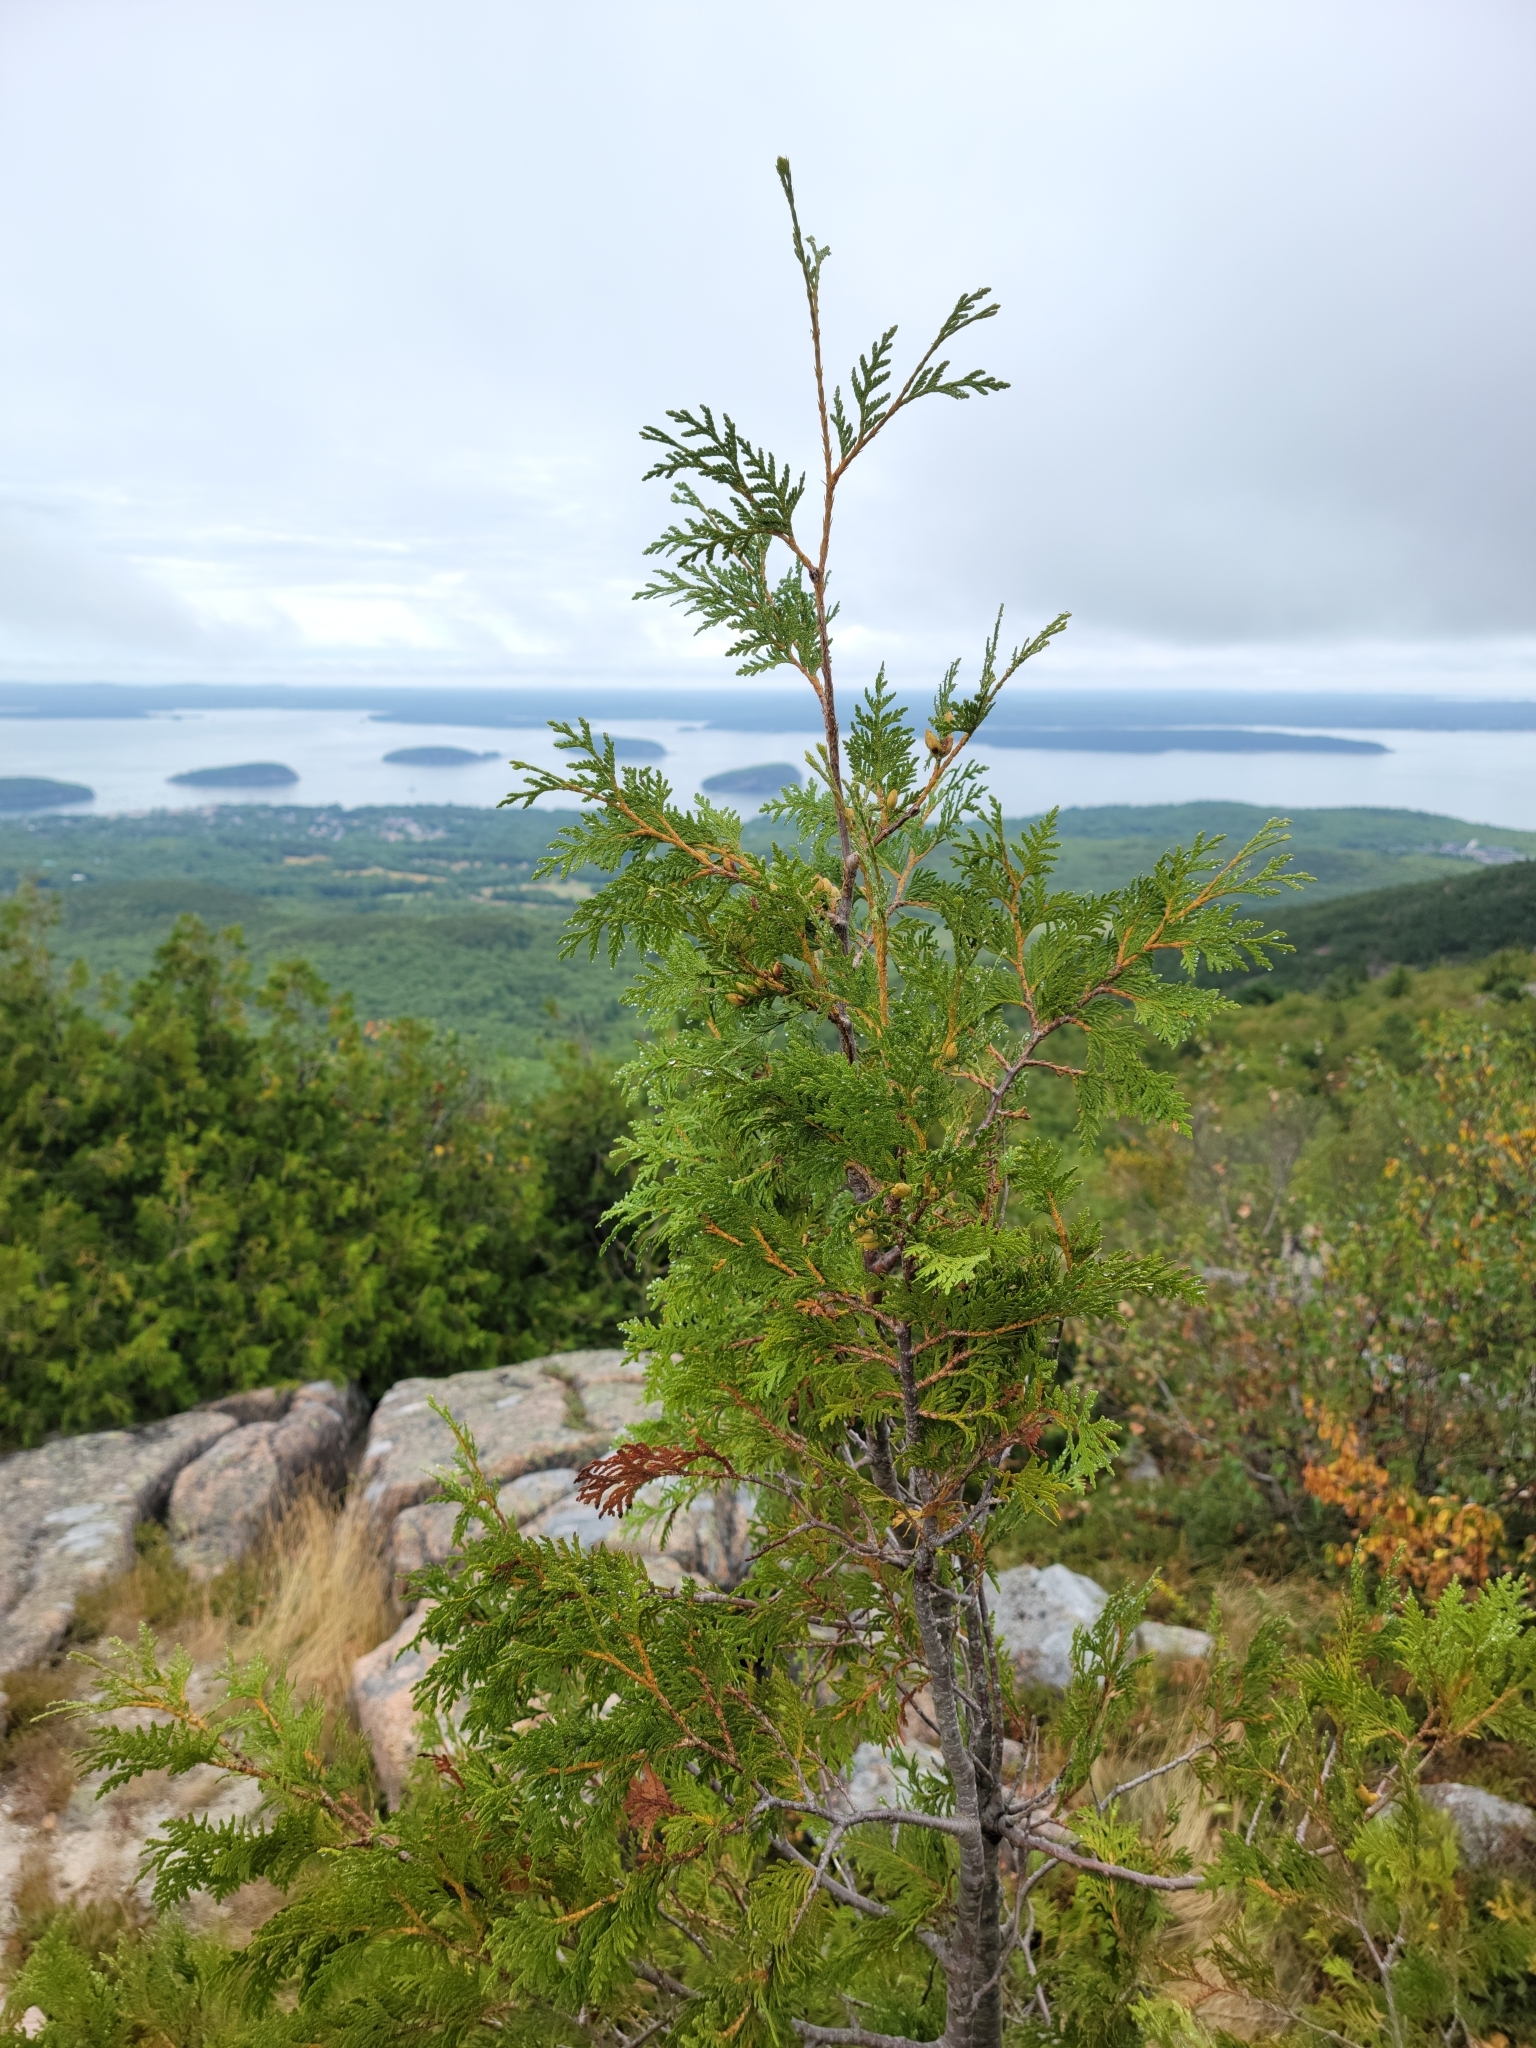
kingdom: Plantae
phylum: Tracheophyta
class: Pinopsida
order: Pinales
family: Cupressaceae
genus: Thuja
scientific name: Thuja occidentalis
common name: Northern white-cedar
